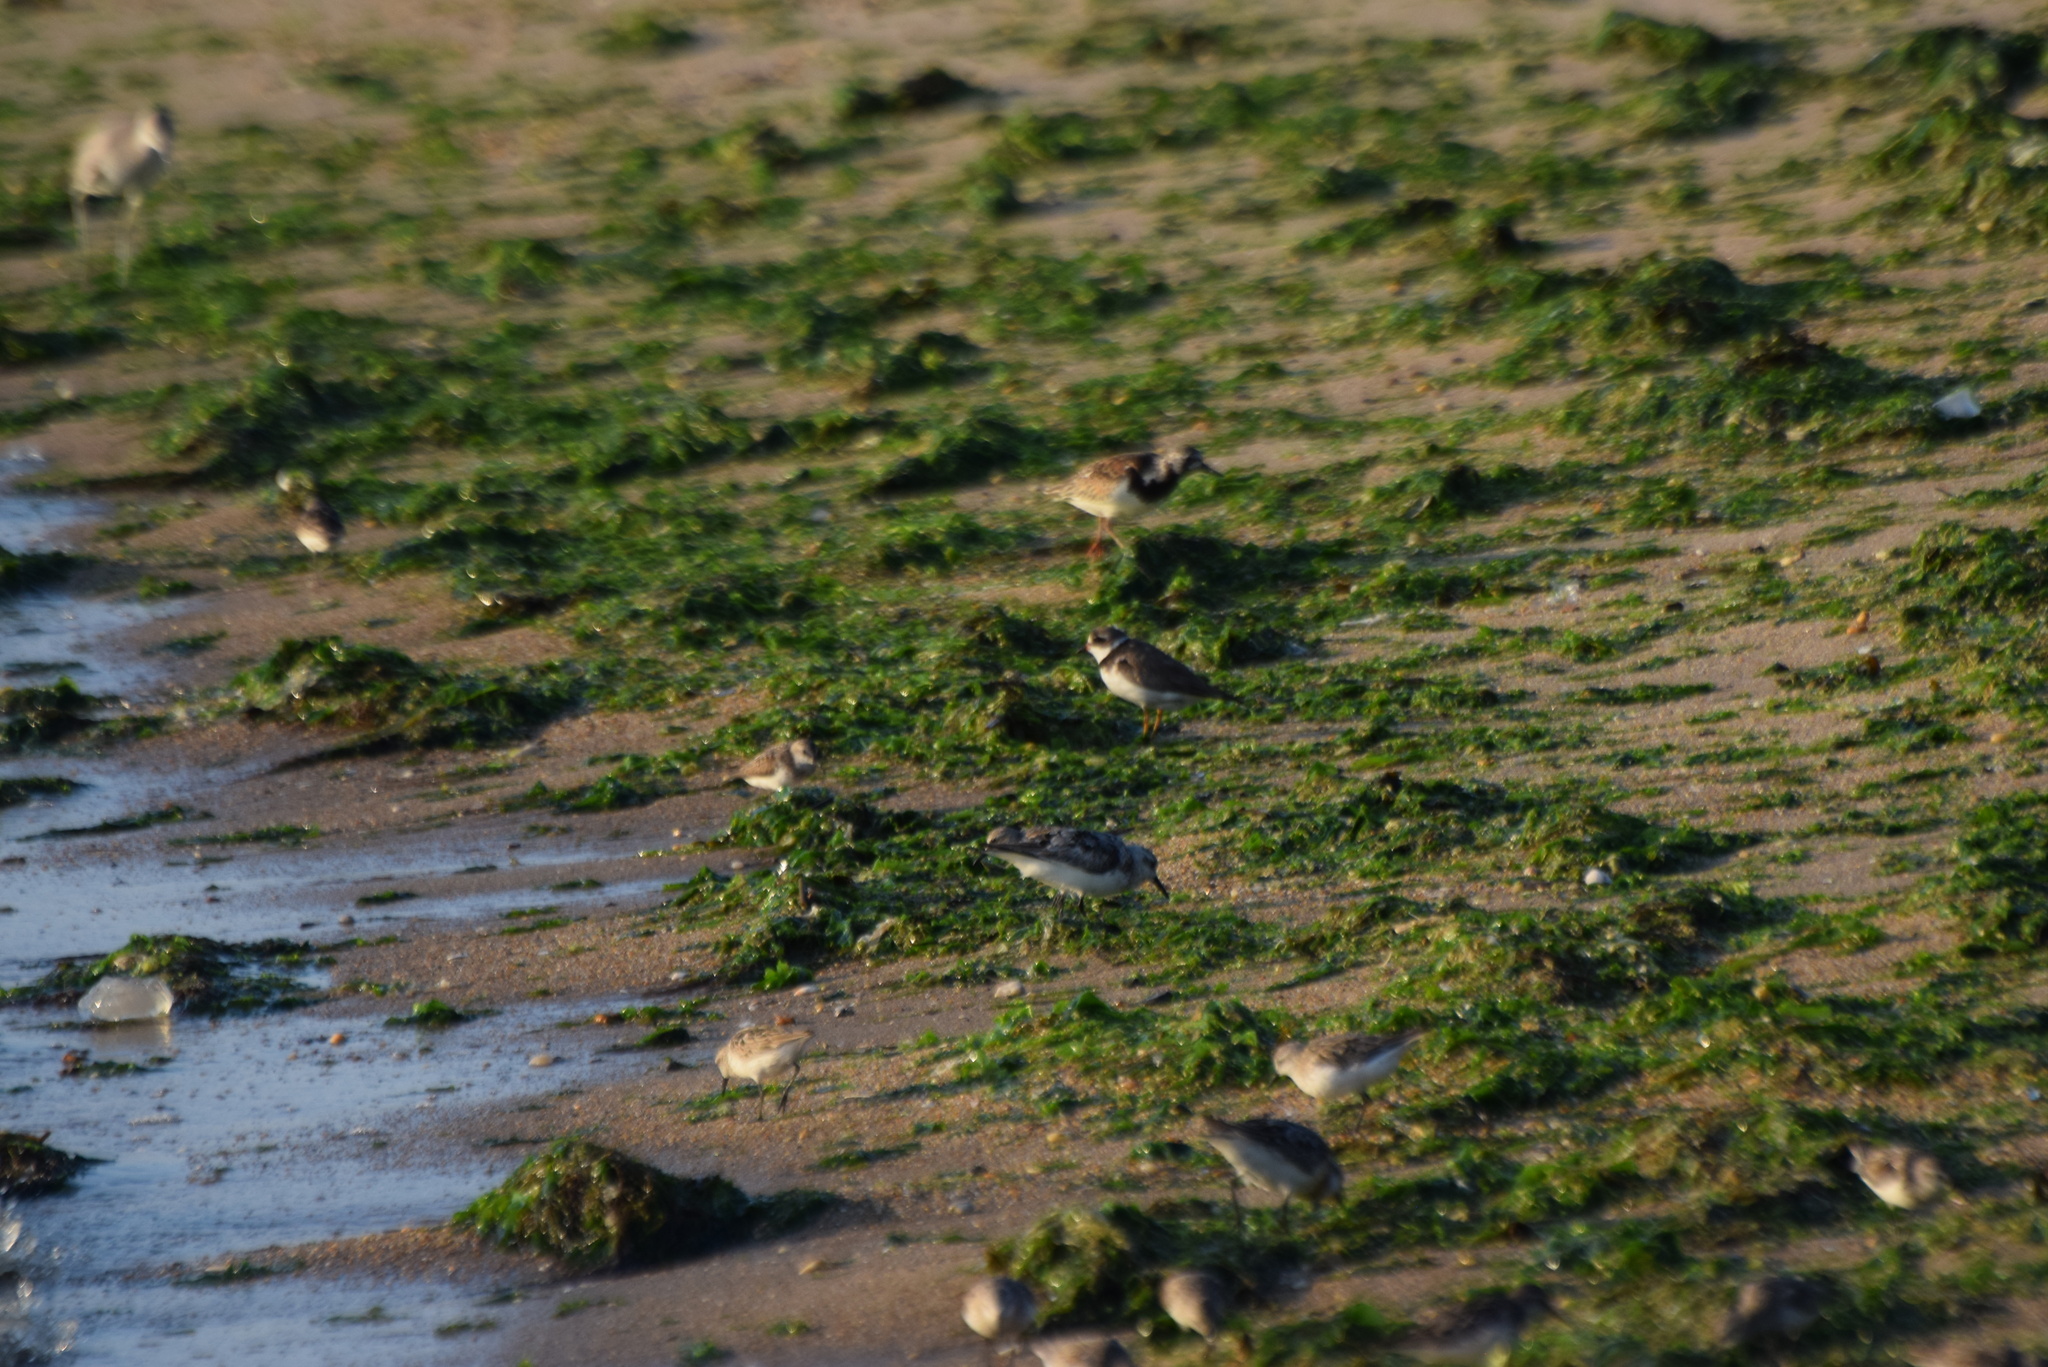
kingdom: Animalia
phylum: Chordata
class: Aves
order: Charadriiformes
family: Scolopacidae
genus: Arenaria
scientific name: Arenaria interpres
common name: Ruddy turnstone
